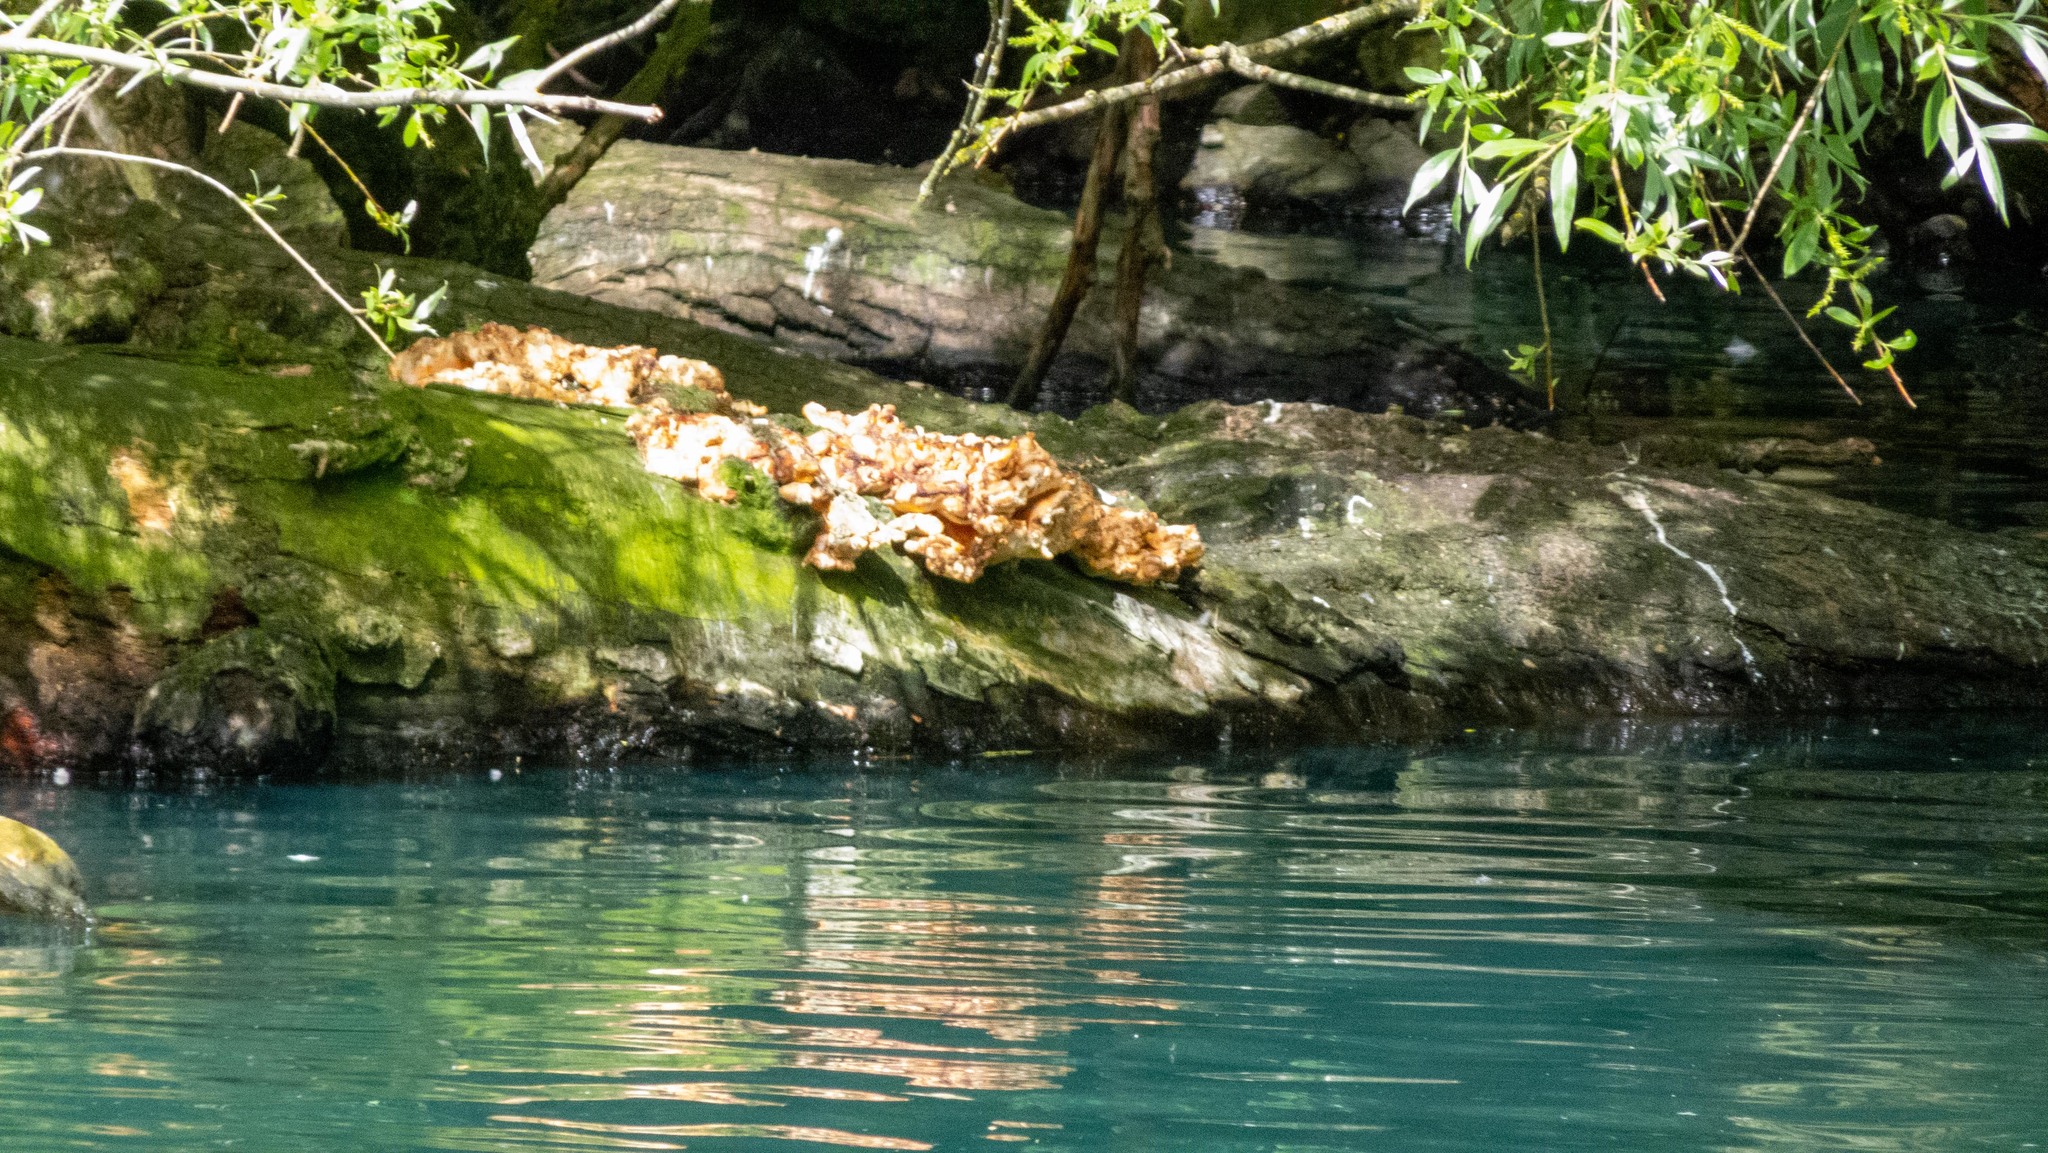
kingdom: Fungi
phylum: Basidiomycota
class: Agaricomycetes
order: Polyporales
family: Laetiporaceae
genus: Laetiporus
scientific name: Laetiporus sulphureus
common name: Chicken of the woods
